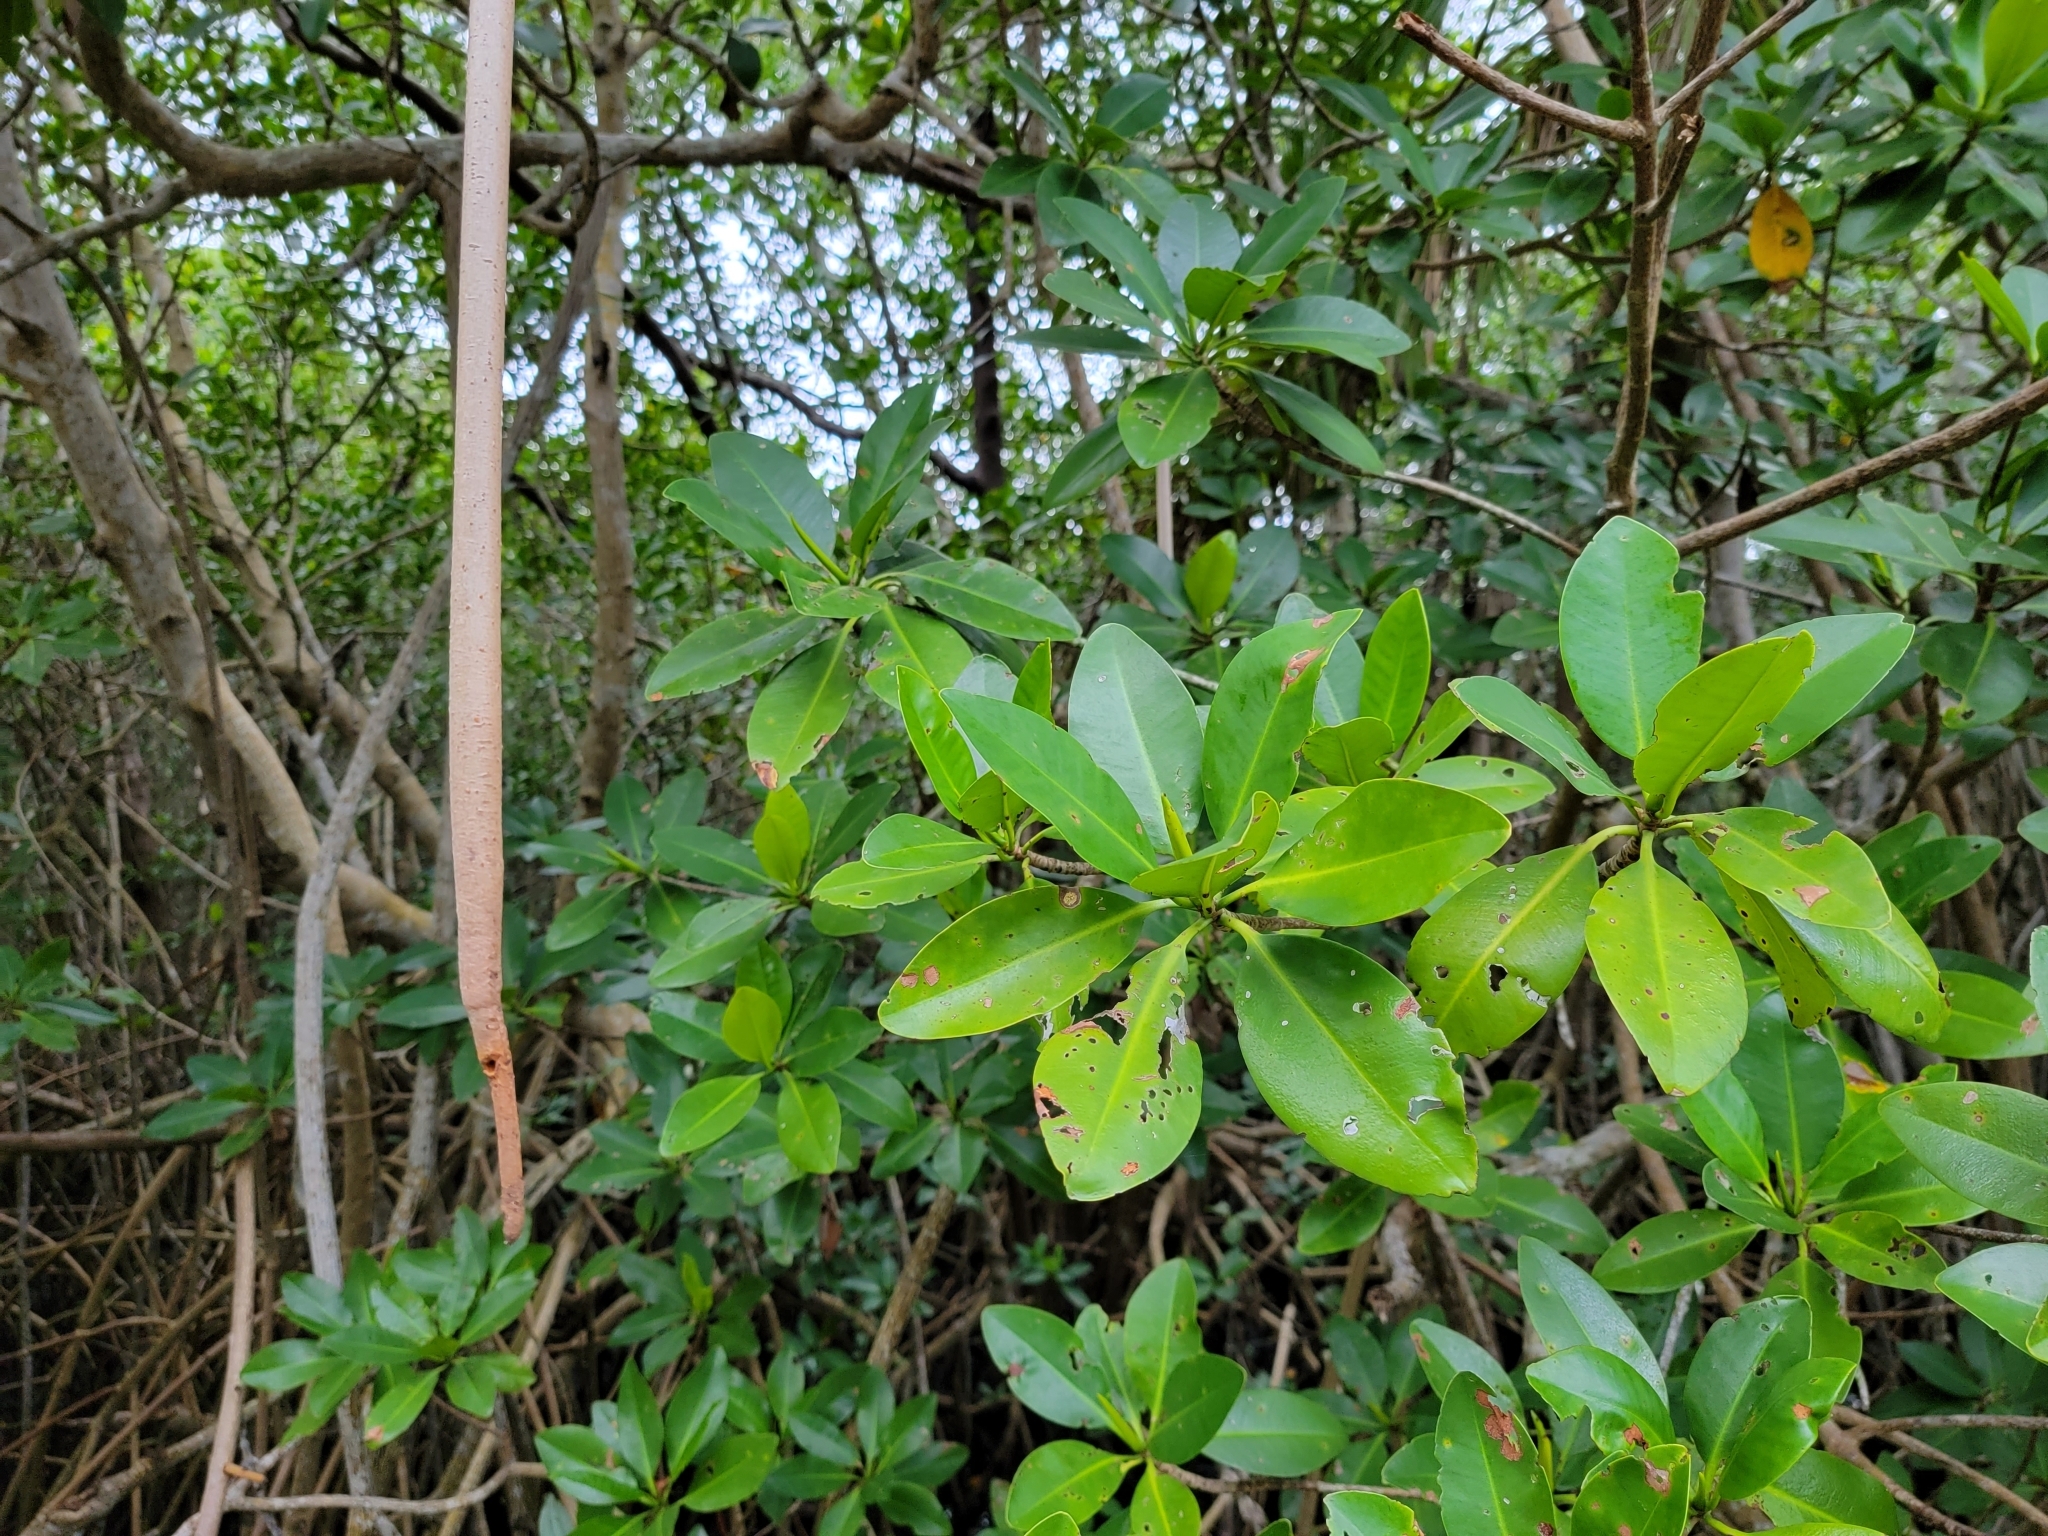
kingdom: Plantae
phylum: Tracheophyta
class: Magnoliopsida
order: Malpighiales
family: Rhizophoraceae
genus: Rhizophora
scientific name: Rhizophora mangle
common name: Red mangrove
